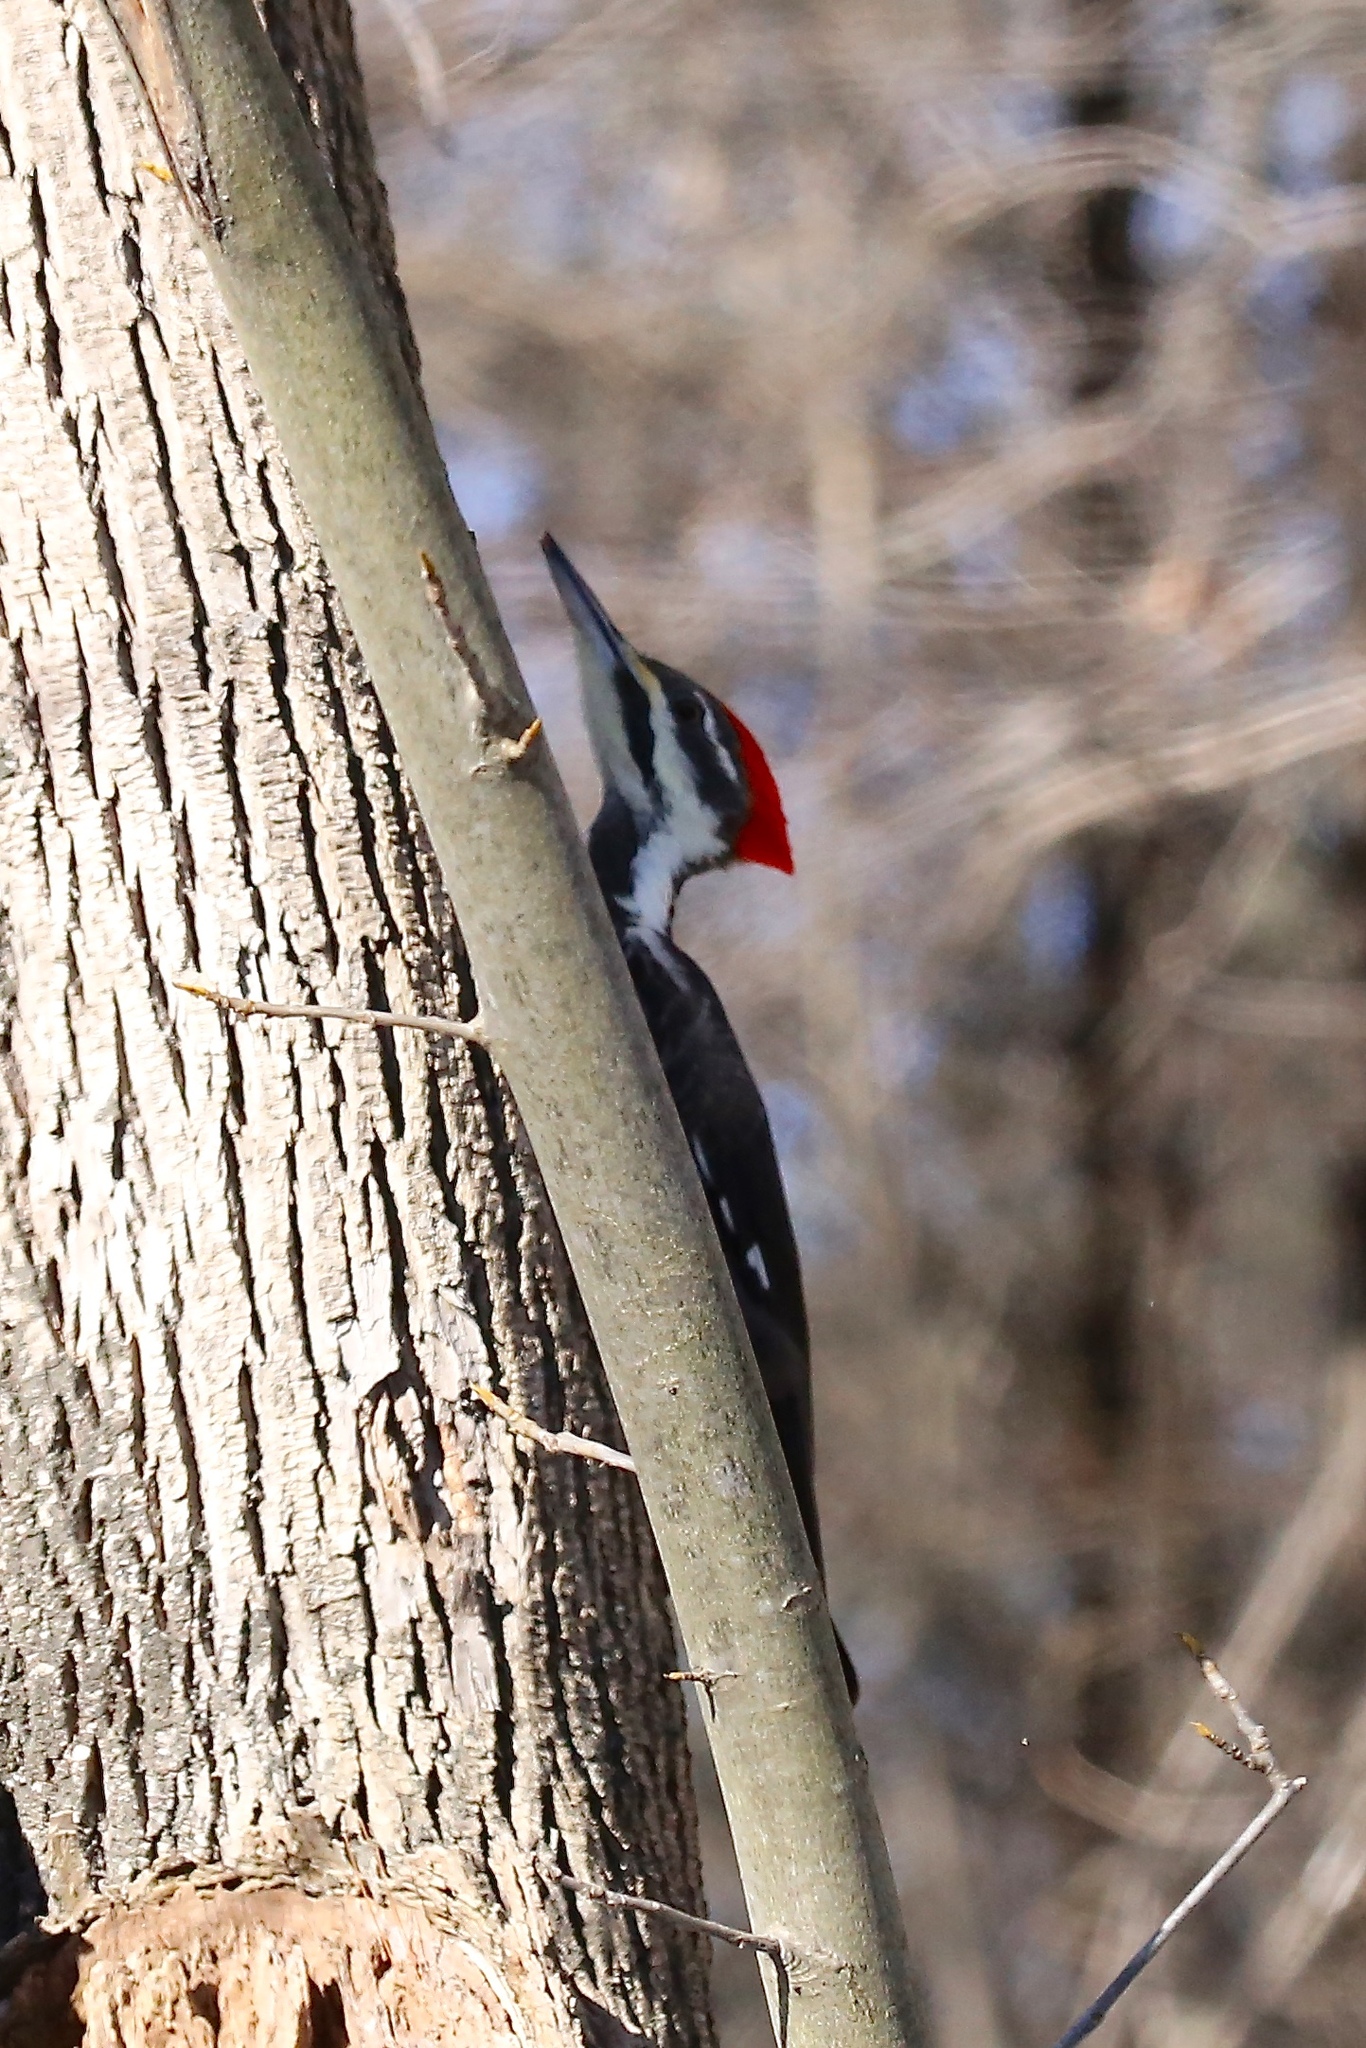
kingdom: Animalia
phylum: Chordata
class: Aves
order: Piciformes
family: Picidae
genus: Dryocopus
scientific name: Dryocopus pileatus
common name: Pileated woodpecker
